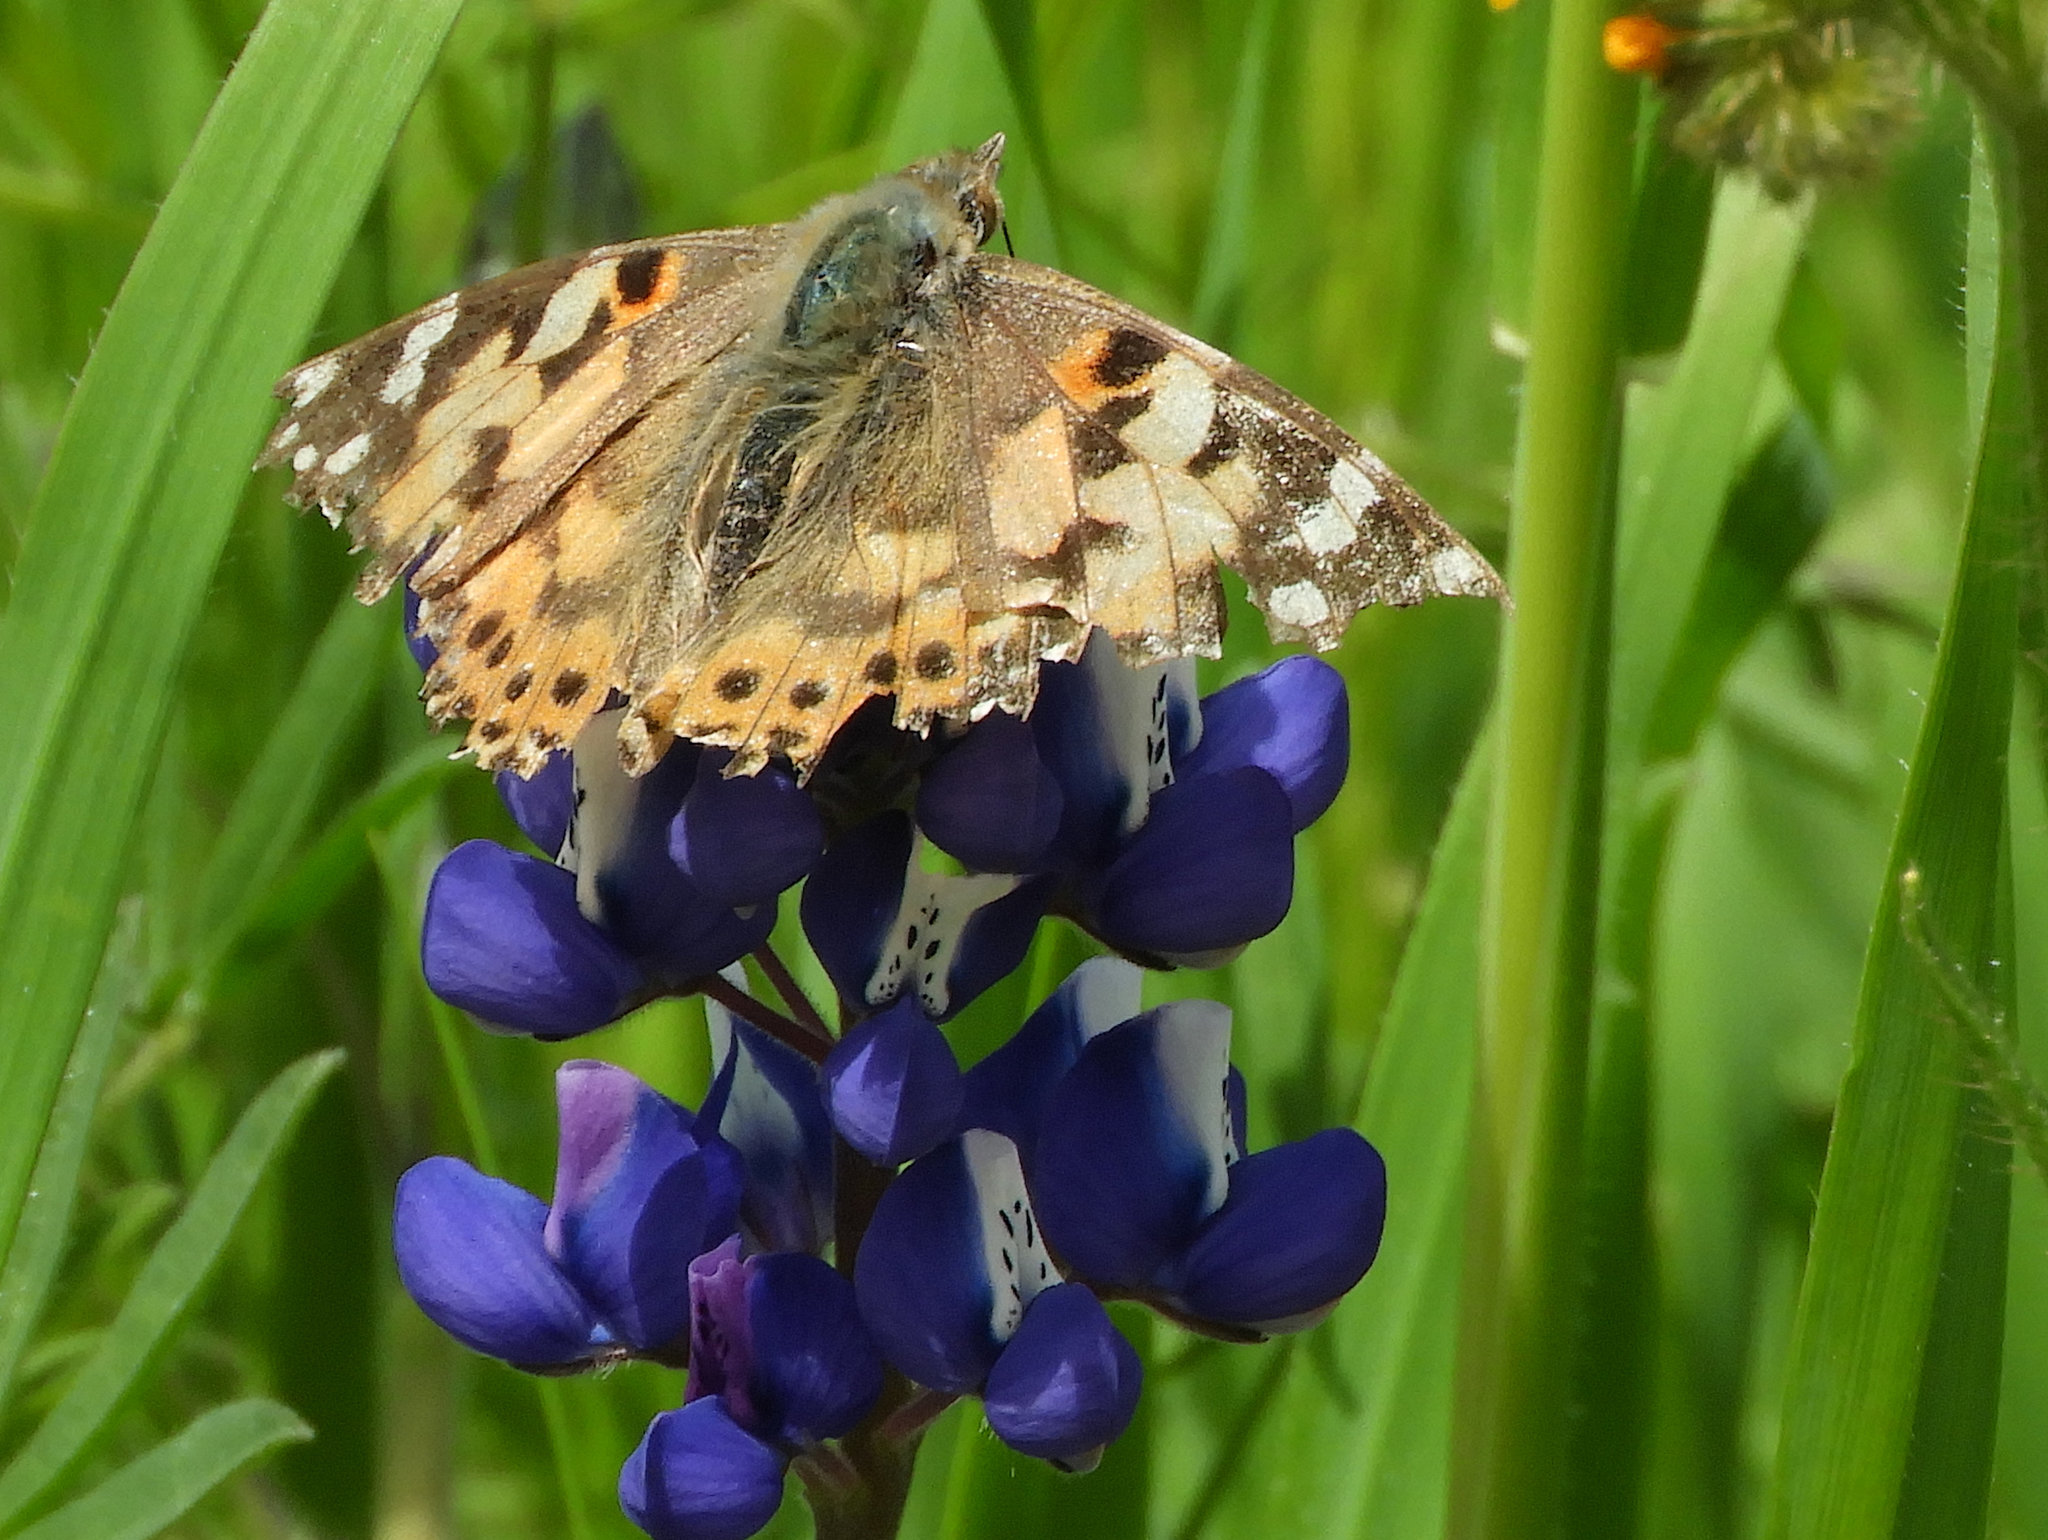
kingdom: Animalia
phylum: Arthropoda
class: Insecta
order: Lepidoptera
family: Nymphalidae
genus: Vanessa
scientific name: Vanessa cardui
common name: Painted lady
